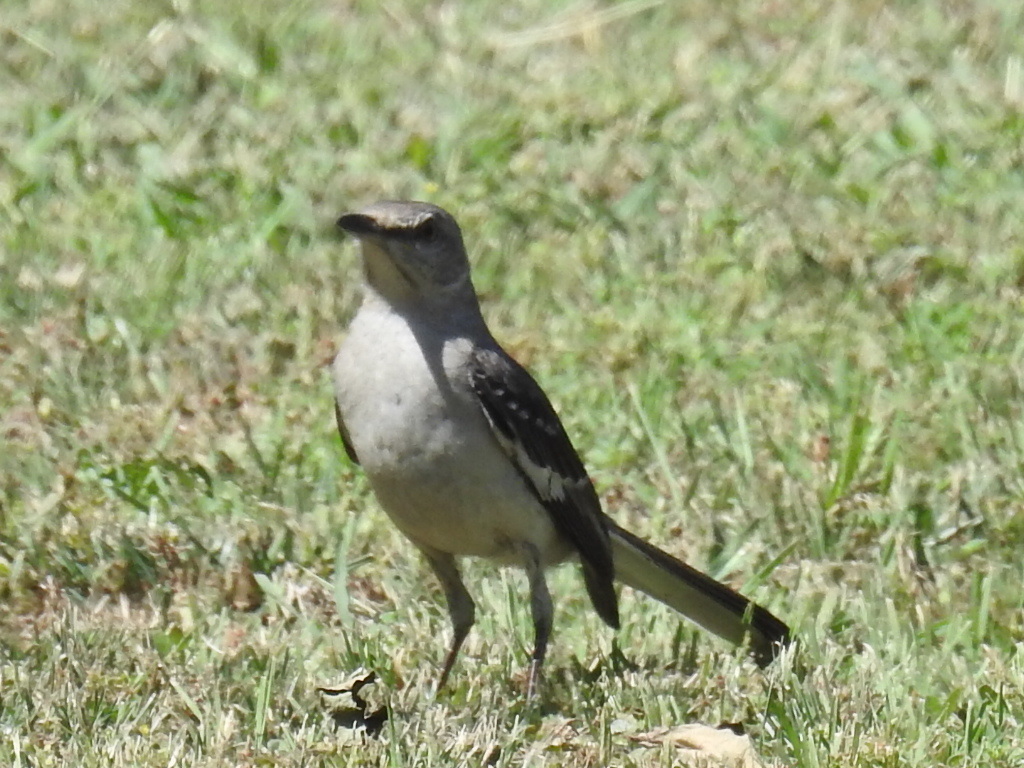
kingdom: Animalia
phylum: Chordata
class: Aves
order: Passeriformes
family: Mimidae
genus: Mimus
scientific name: Mimus polyglottos
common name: Northern mockingbird
